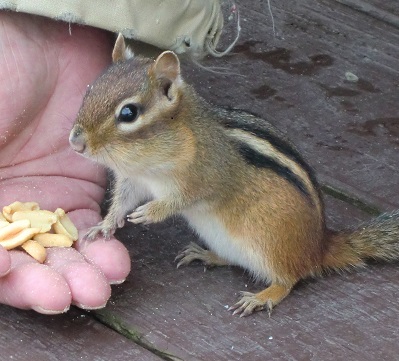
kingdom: Animalia
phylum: Chordata
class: Mammalia
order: Rodentia
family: Sciuridae
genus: Tamias
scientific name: Tamias striatus
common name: Eastern chipmunk
